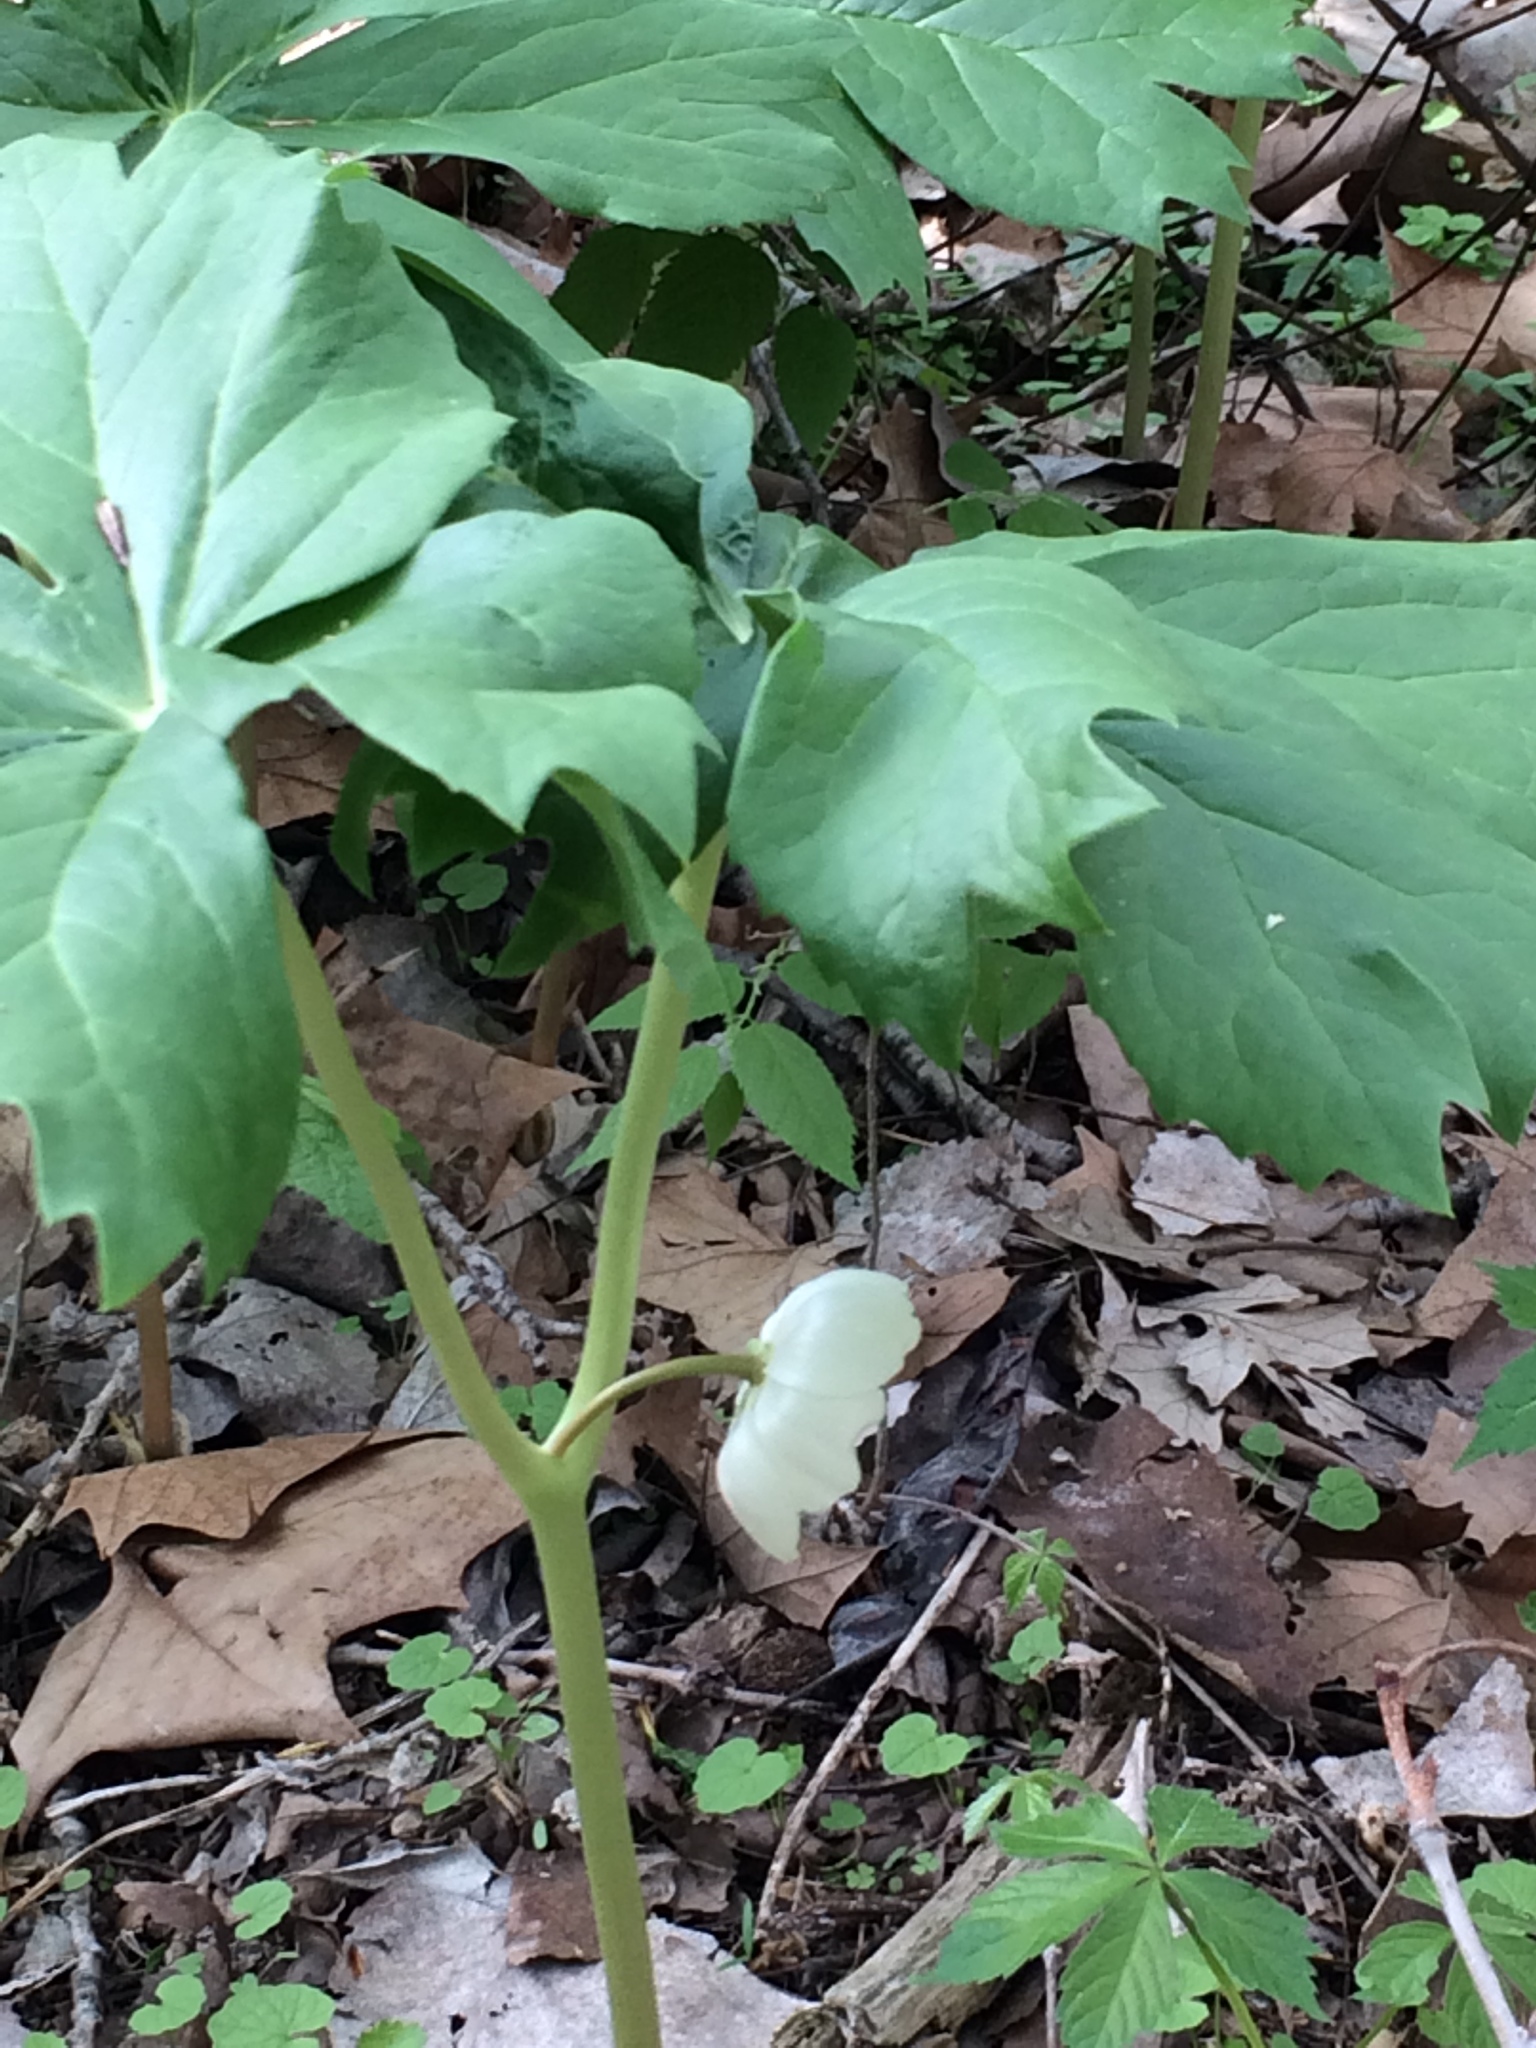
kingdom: Plantae
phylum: Tracheophyta
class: Magnoliopsida
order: Ranunculales
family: Berberidaceae
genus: Podophyllum
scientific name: Podophyllum peltatum
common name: Wild mandrake
